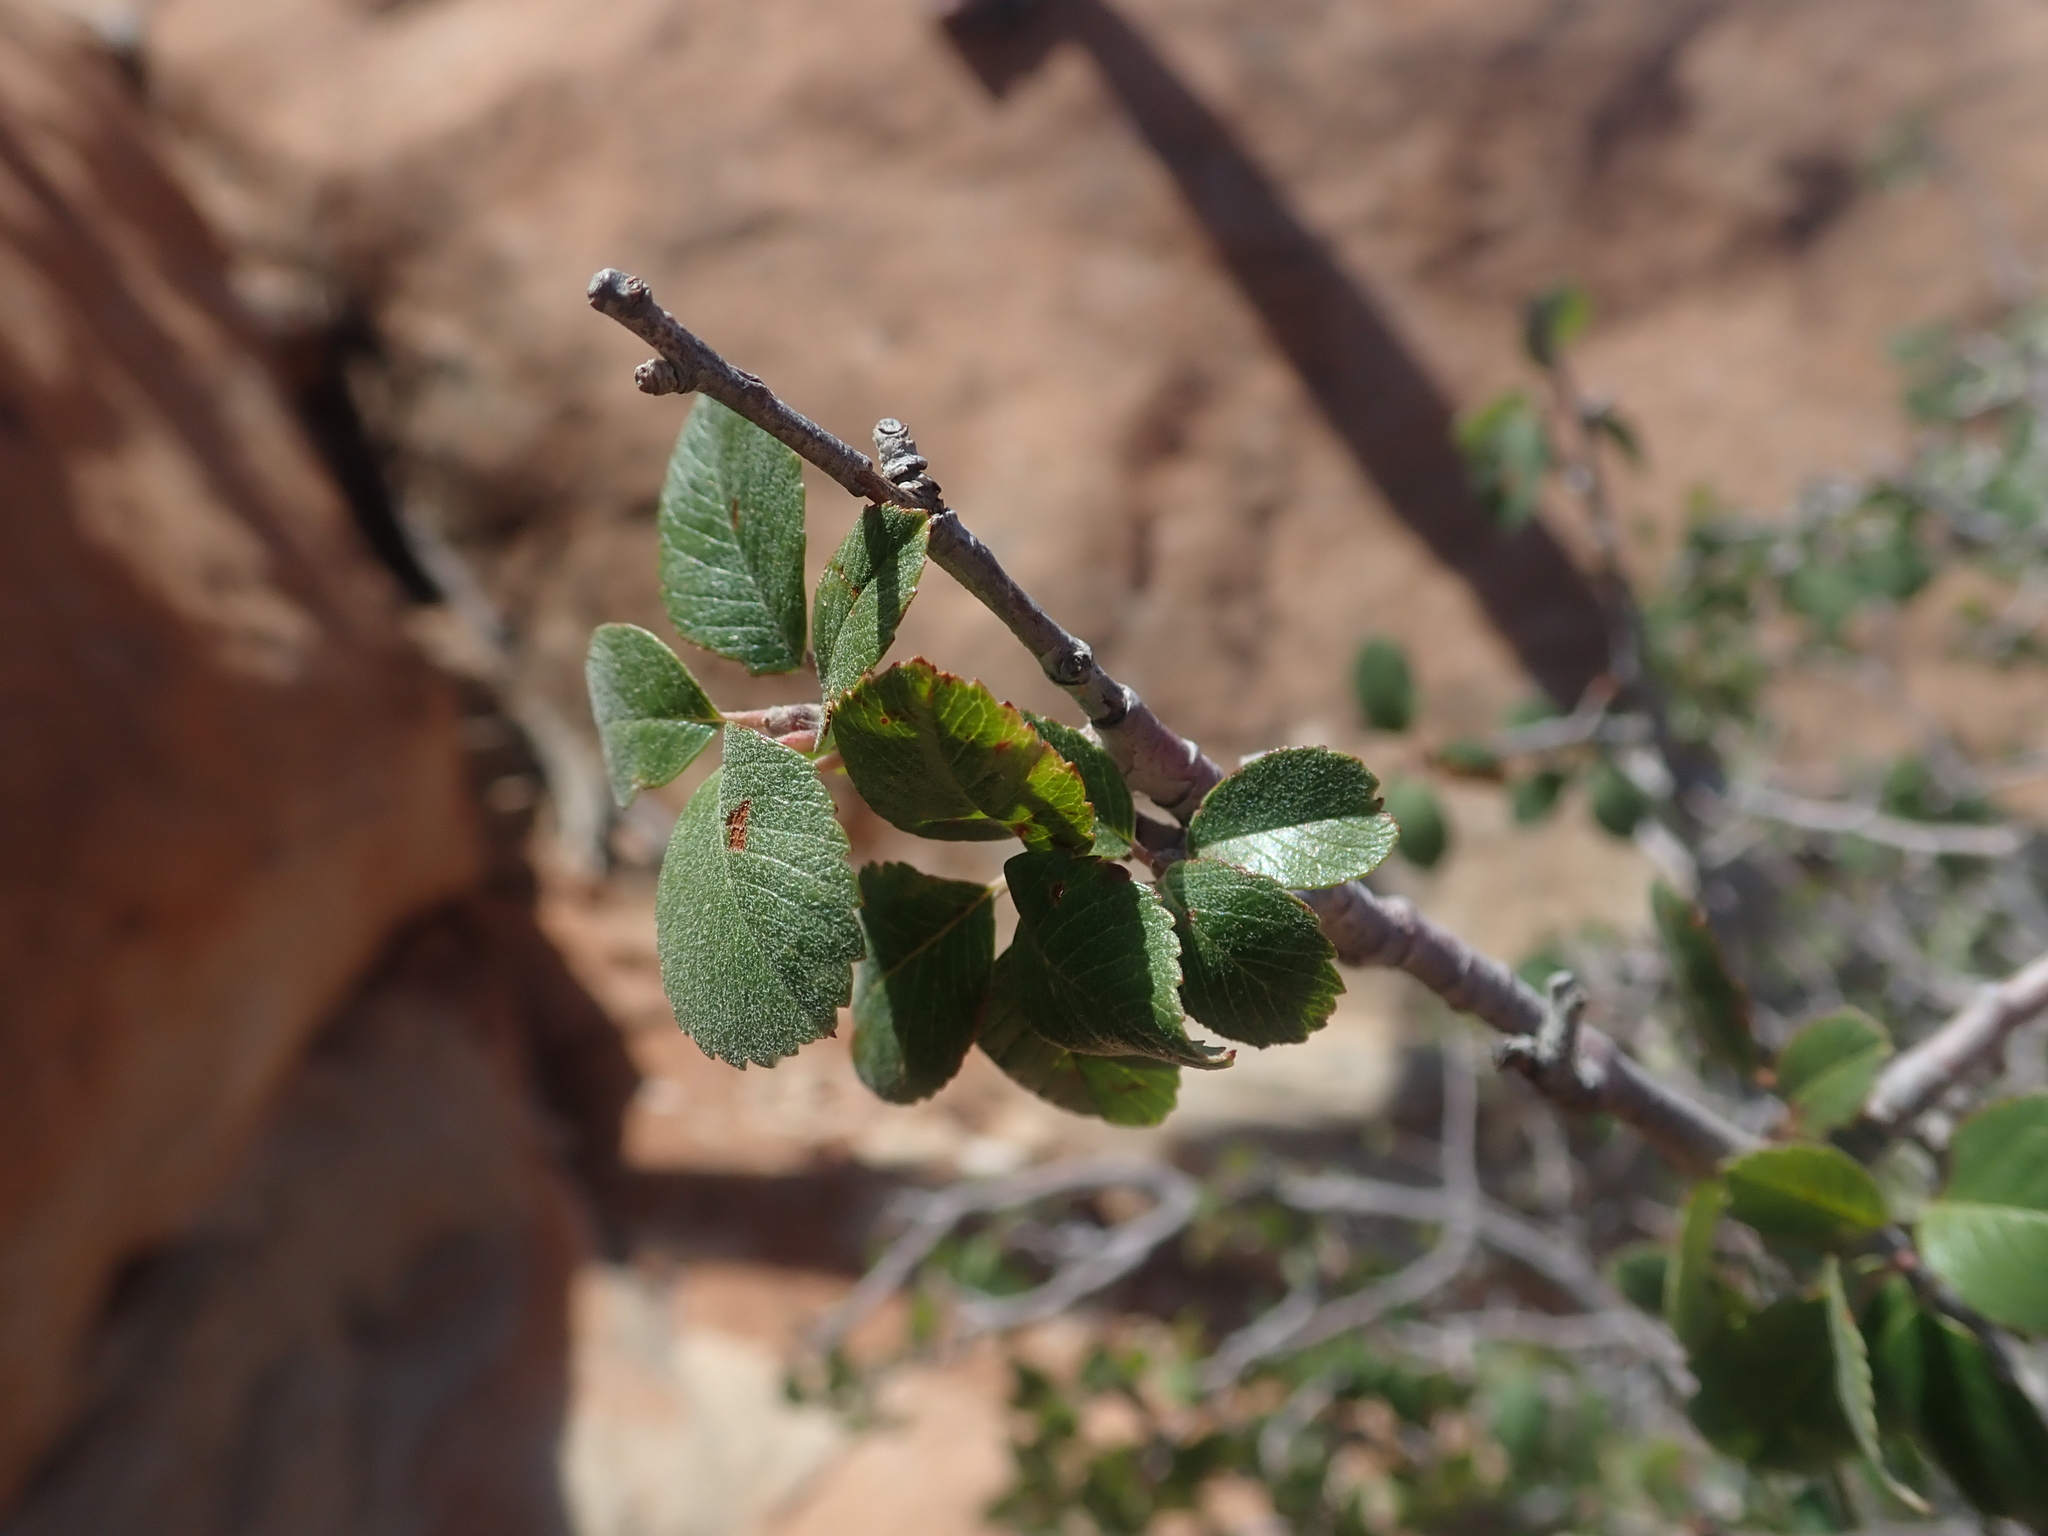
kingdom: Plantae
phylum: Tracheophyta
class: Magnoliopsida
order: Rosales
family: Rosaceae
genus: Amelanchier
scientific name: Amelanchier utahensis
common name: Utah serviceberry
